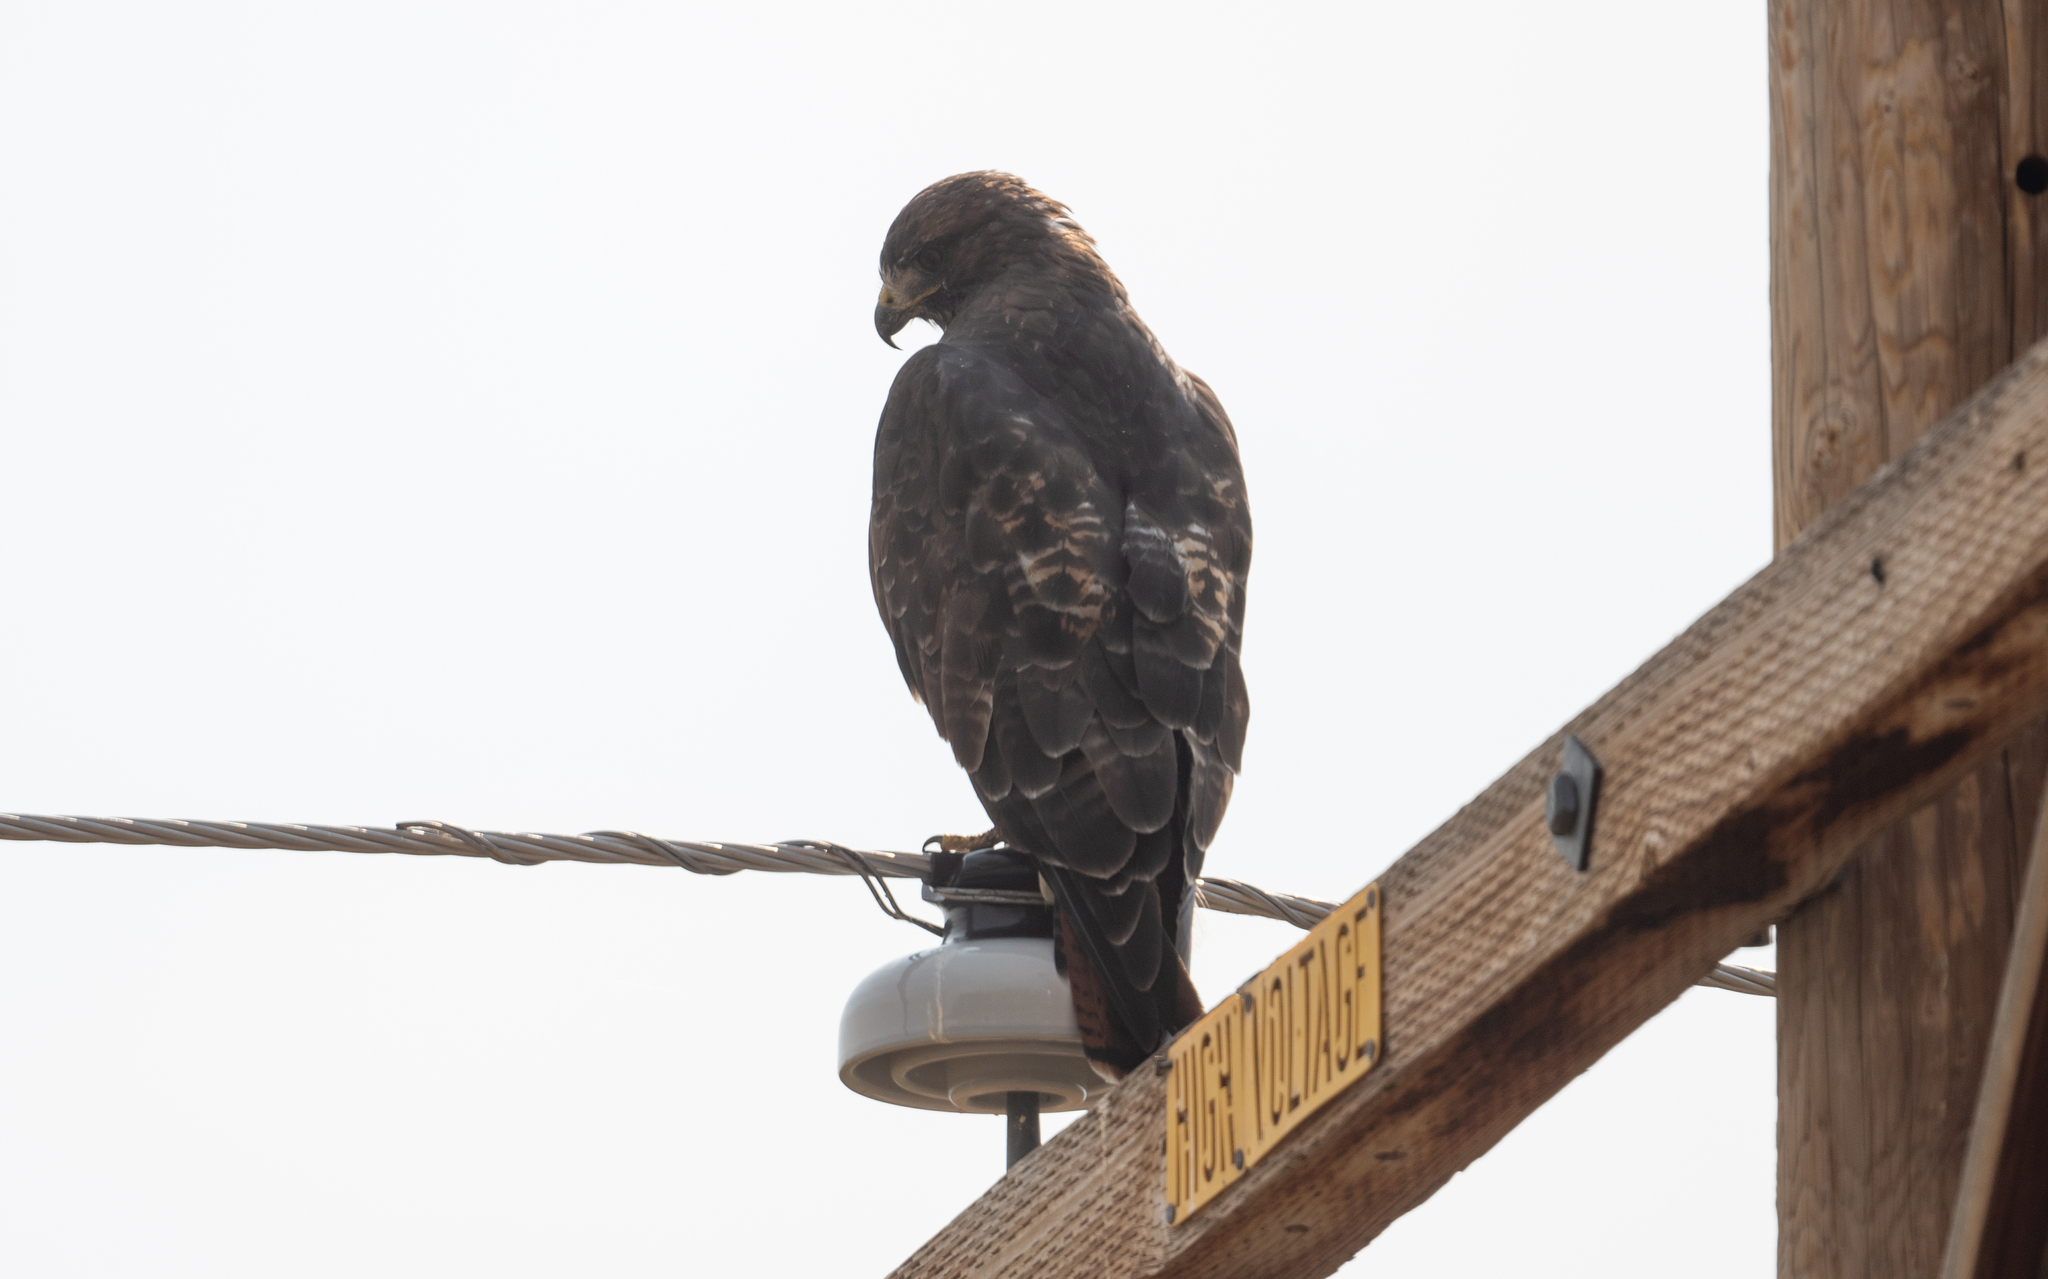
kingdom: Animalia
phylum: Chordata
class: Aves
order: Accipitriformes
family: Accipitridae
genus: Buteo
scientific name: Buteo jamaicensis
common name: Red-tailed hawk
